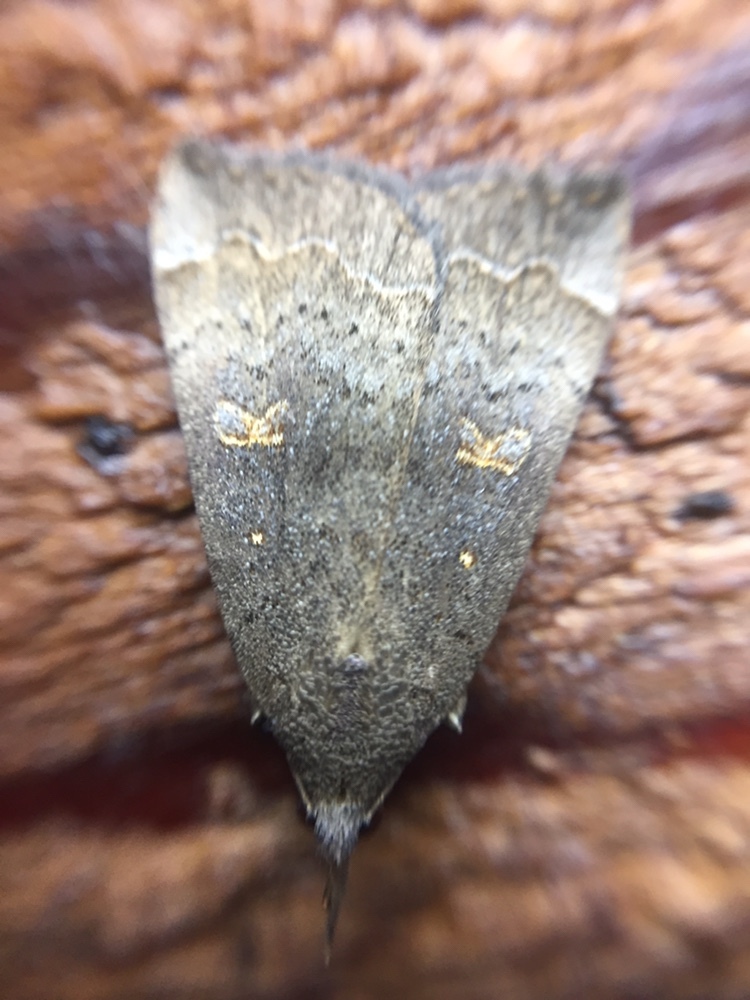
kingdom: Animalia
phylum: Arthropoda
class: Insecta
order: Lepidoptera
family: Erebidae
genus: Rhapsa
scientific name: Rhapsa scotosialis
